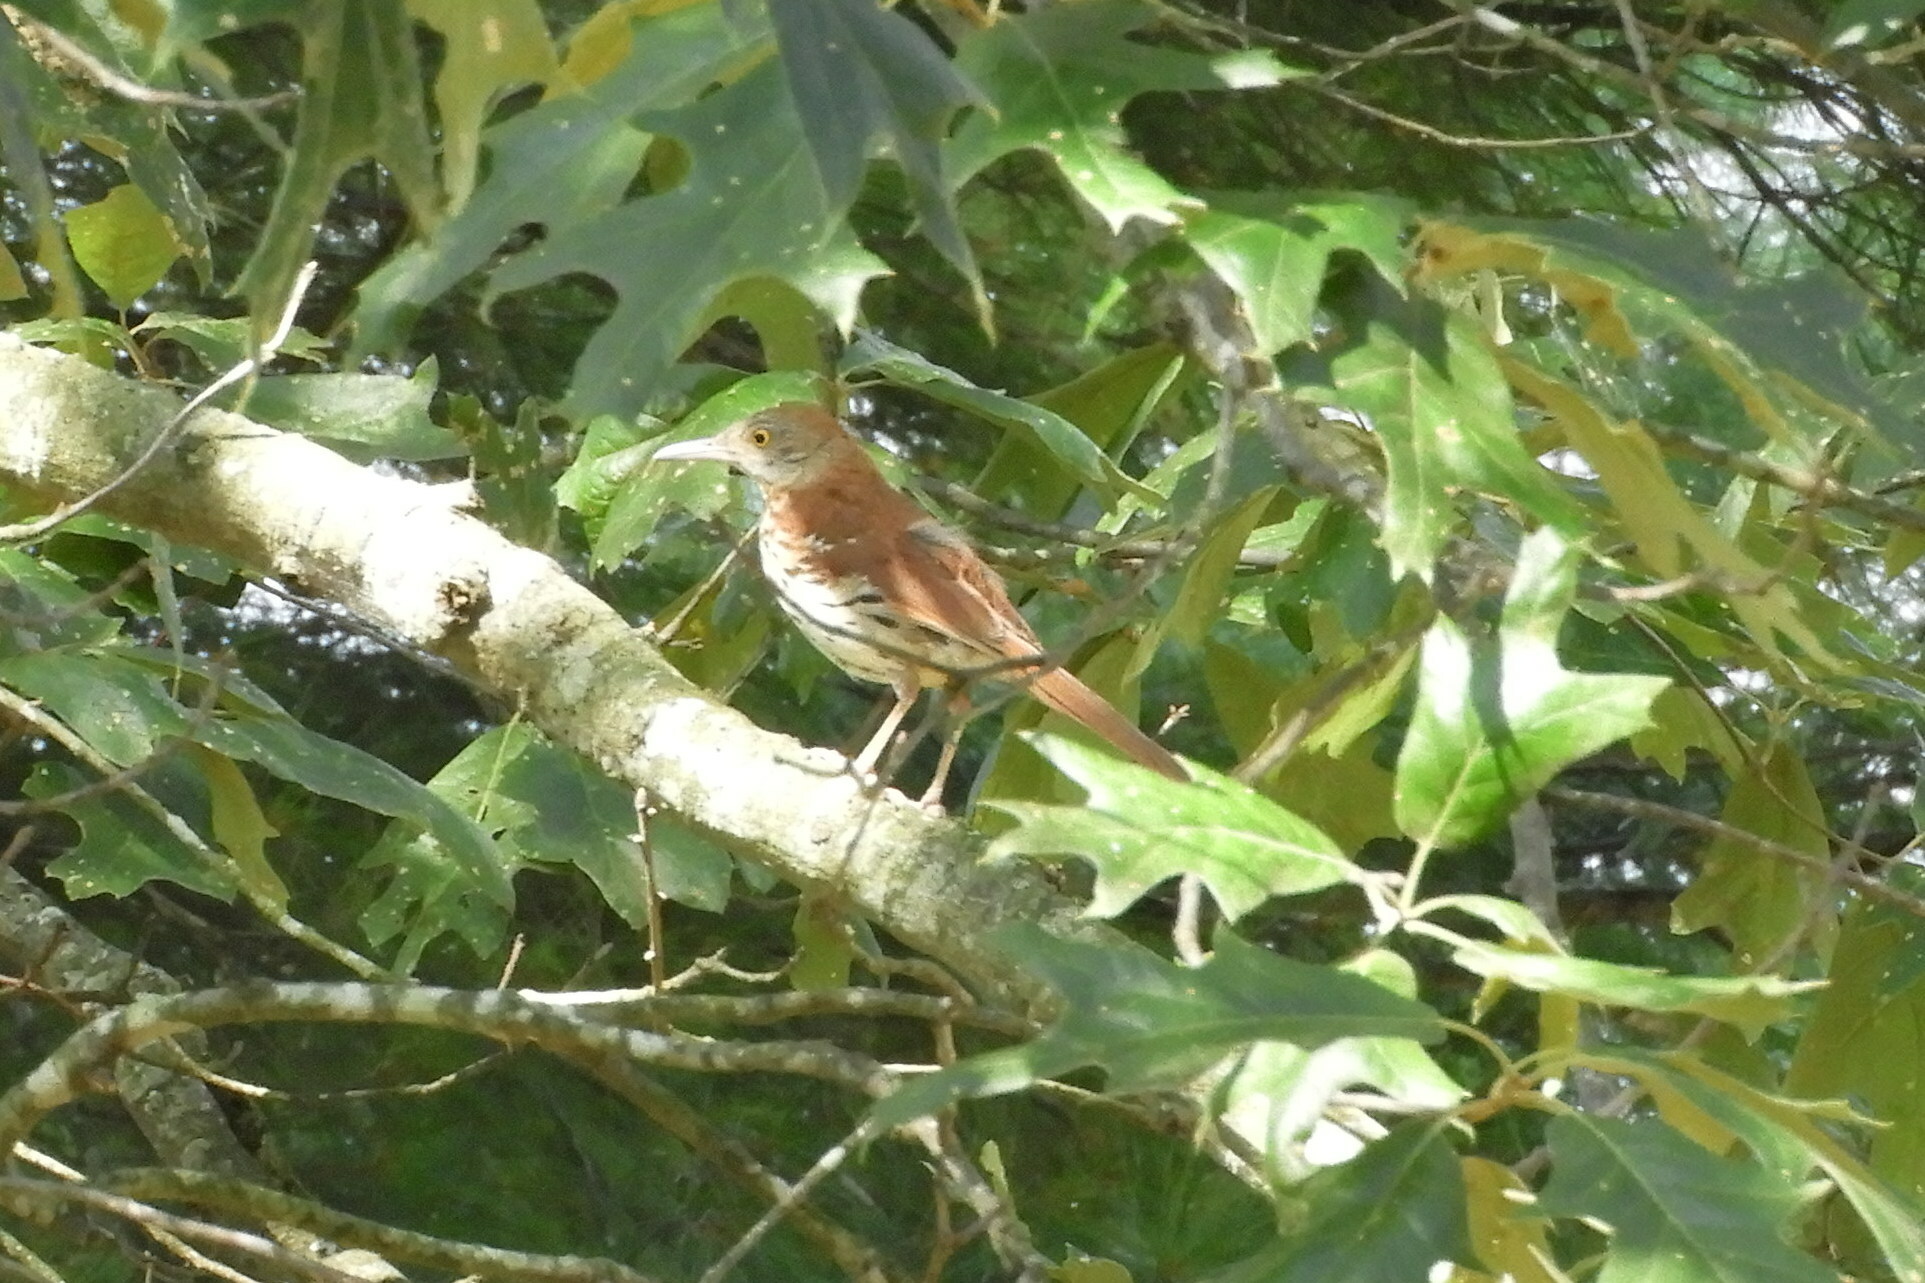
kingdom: Animalia
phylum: Chordata
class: Aves
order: Passeriformes
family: Mimidae
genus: Toxostoma
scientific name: Toxostoma rufum
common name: Brown thrasher
